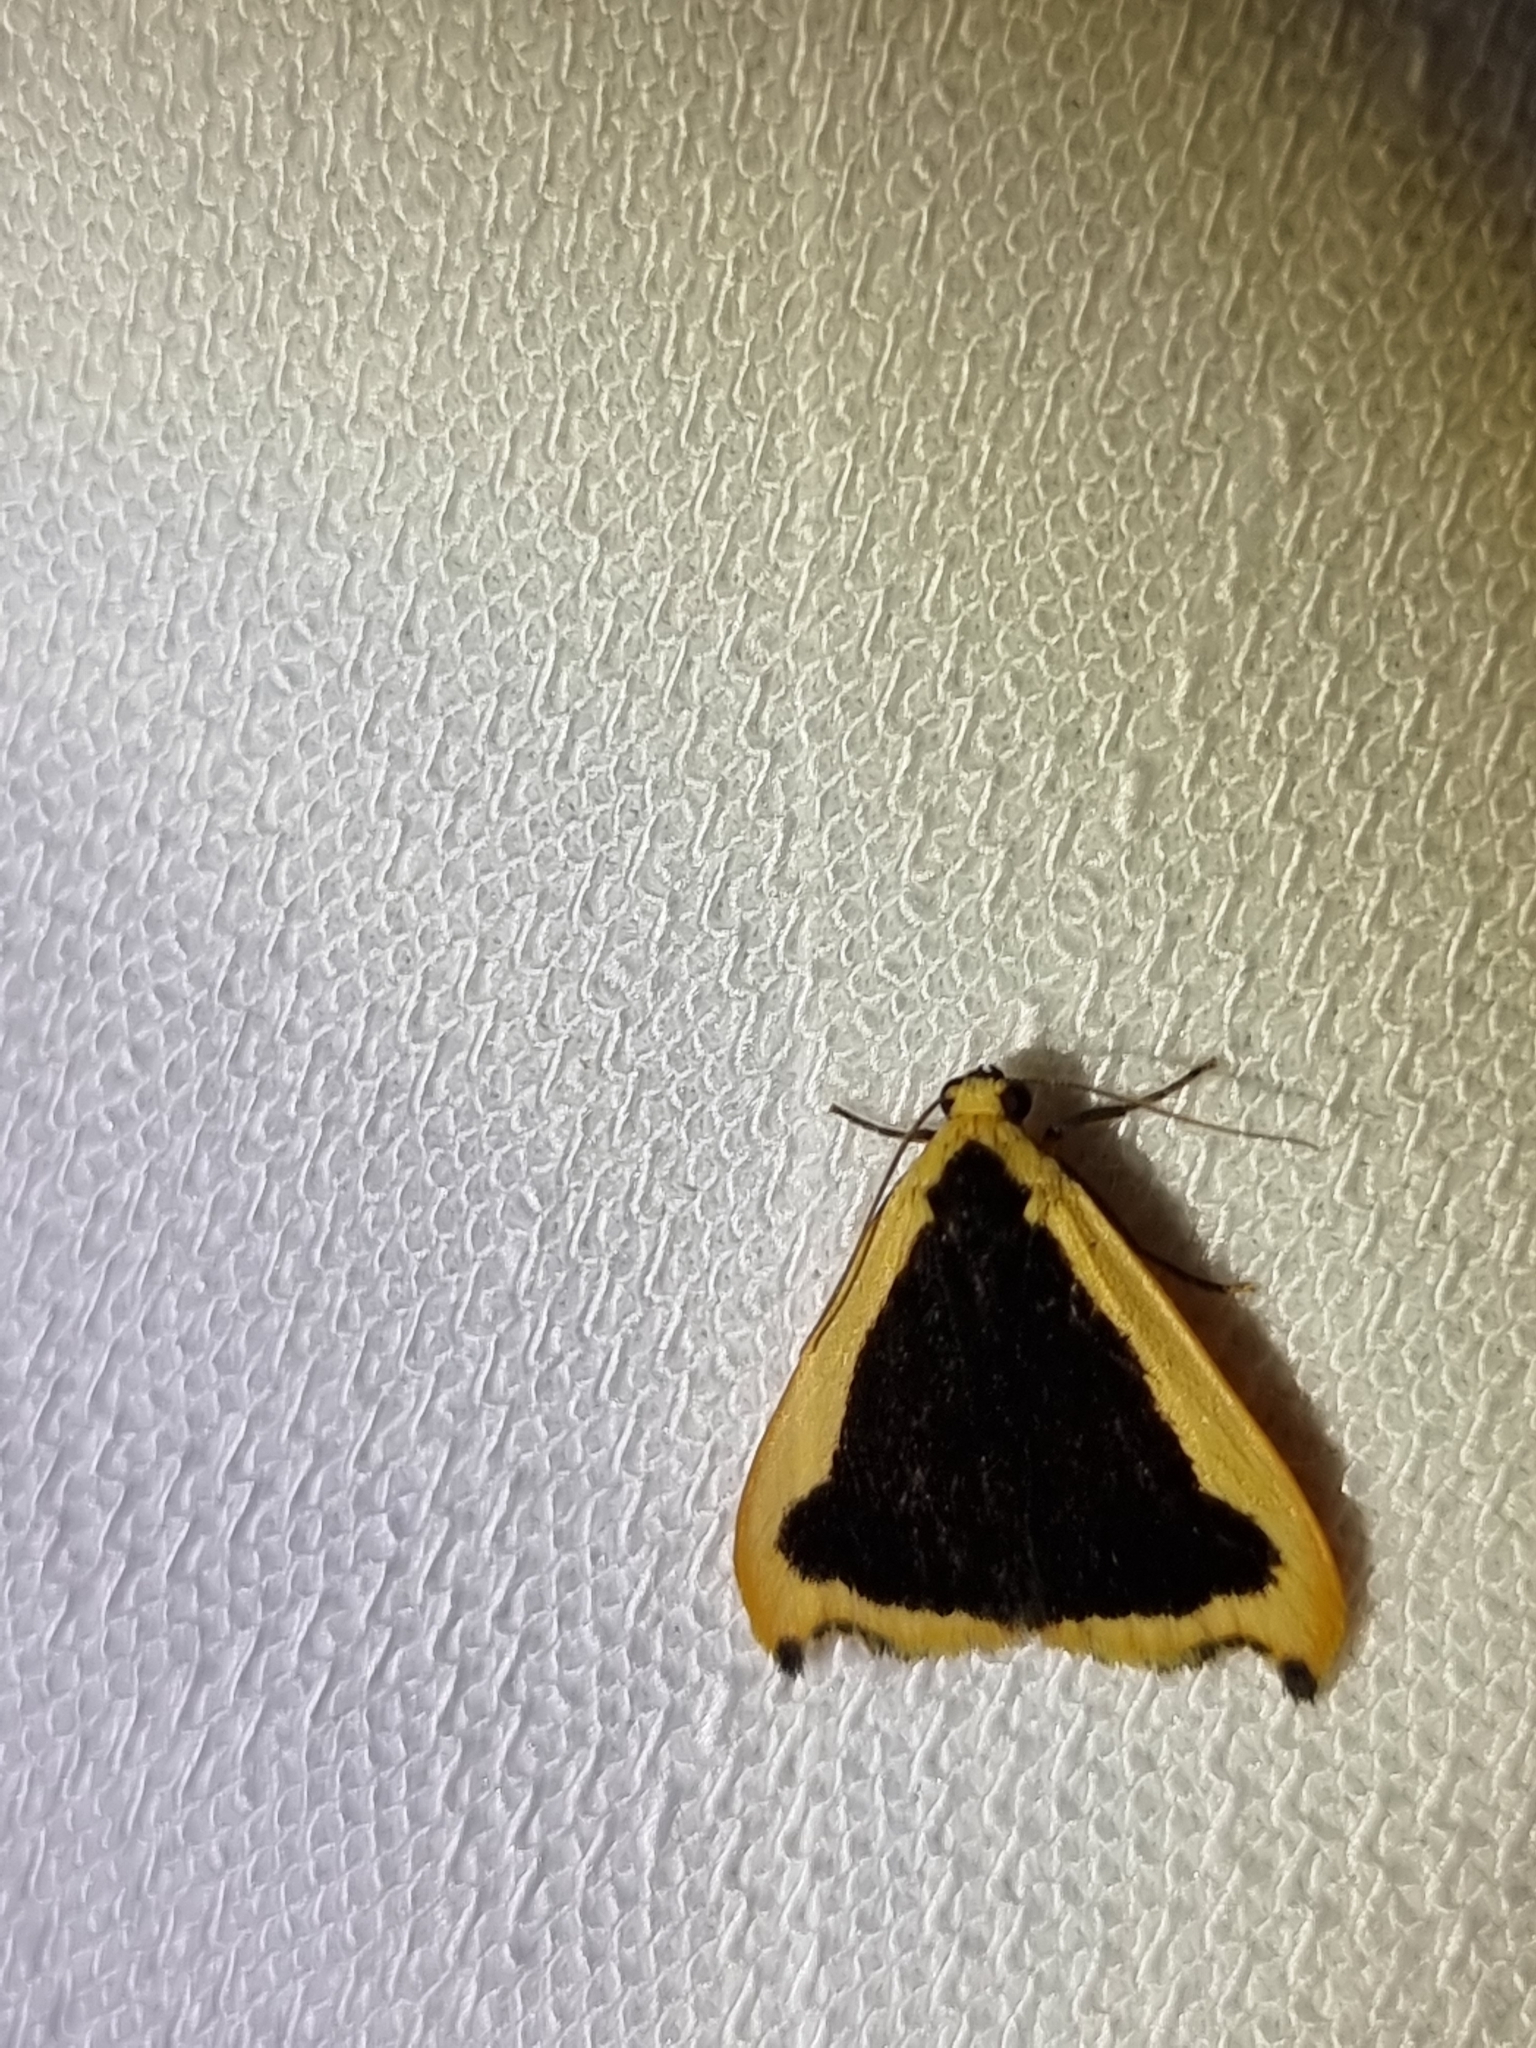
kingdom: Animalia
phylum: Arthropoda
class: Insecta
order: Lepidoptera
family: Erebidae
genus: Termessa
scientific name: Termessa conographa
